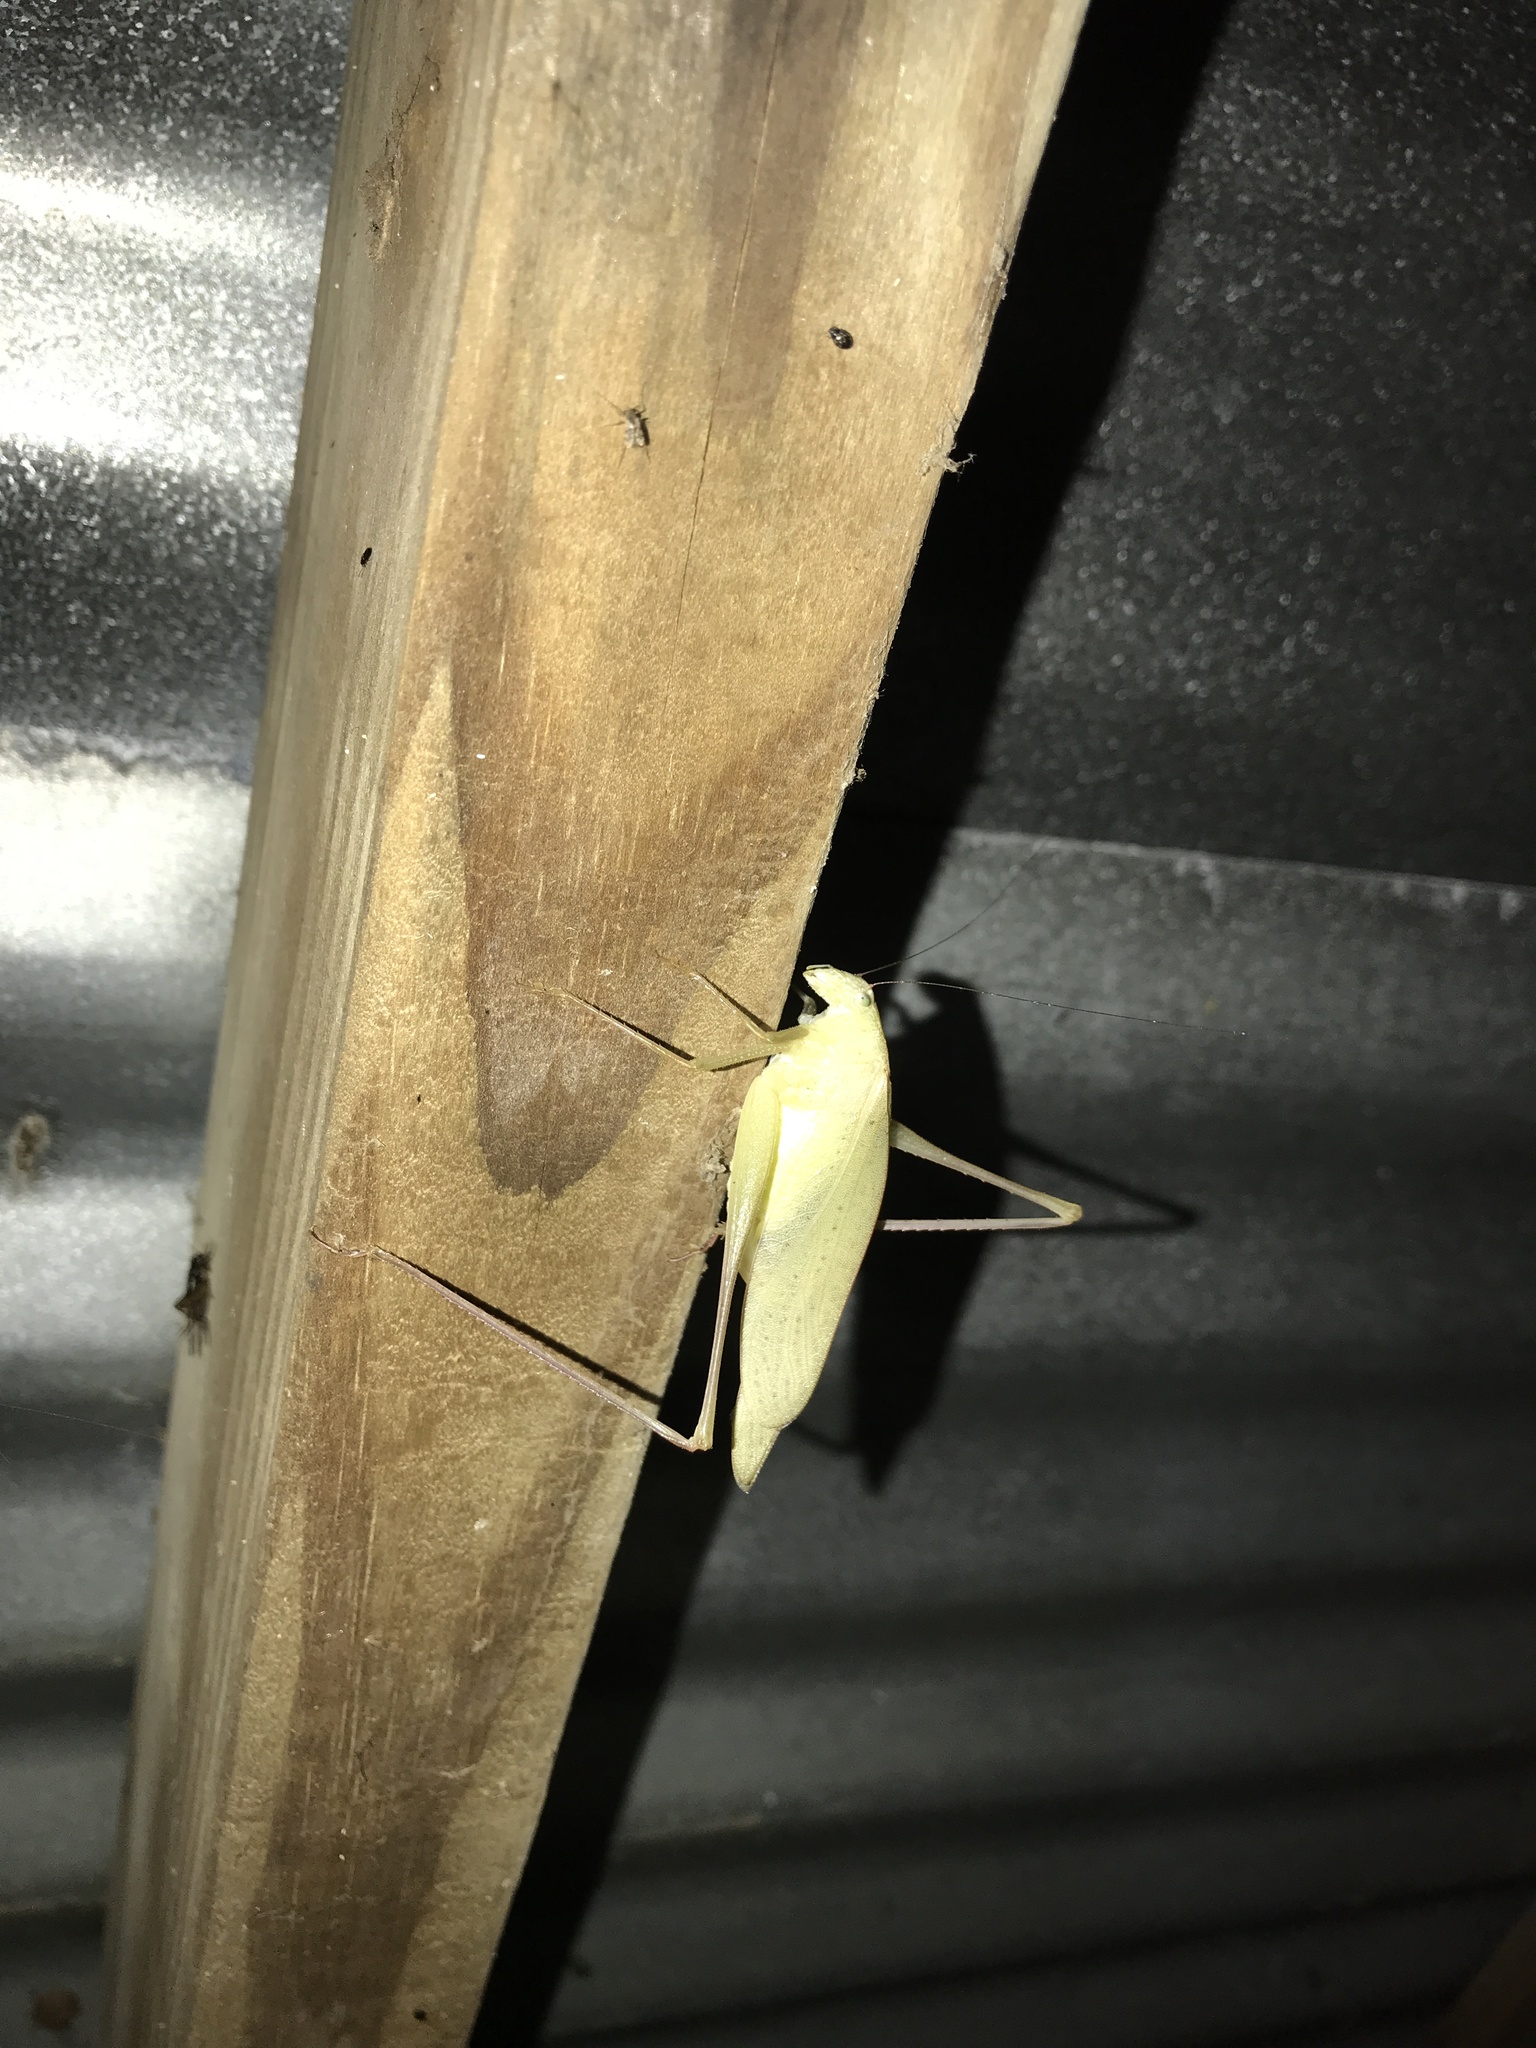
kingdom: Animalia
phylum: Arthropoda
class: Insecta
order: Orthoptera
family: Tettigoniidae
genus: Amblycorypha
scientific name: Amblycorypha oblongifolia
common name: Oblong-winged katydid
